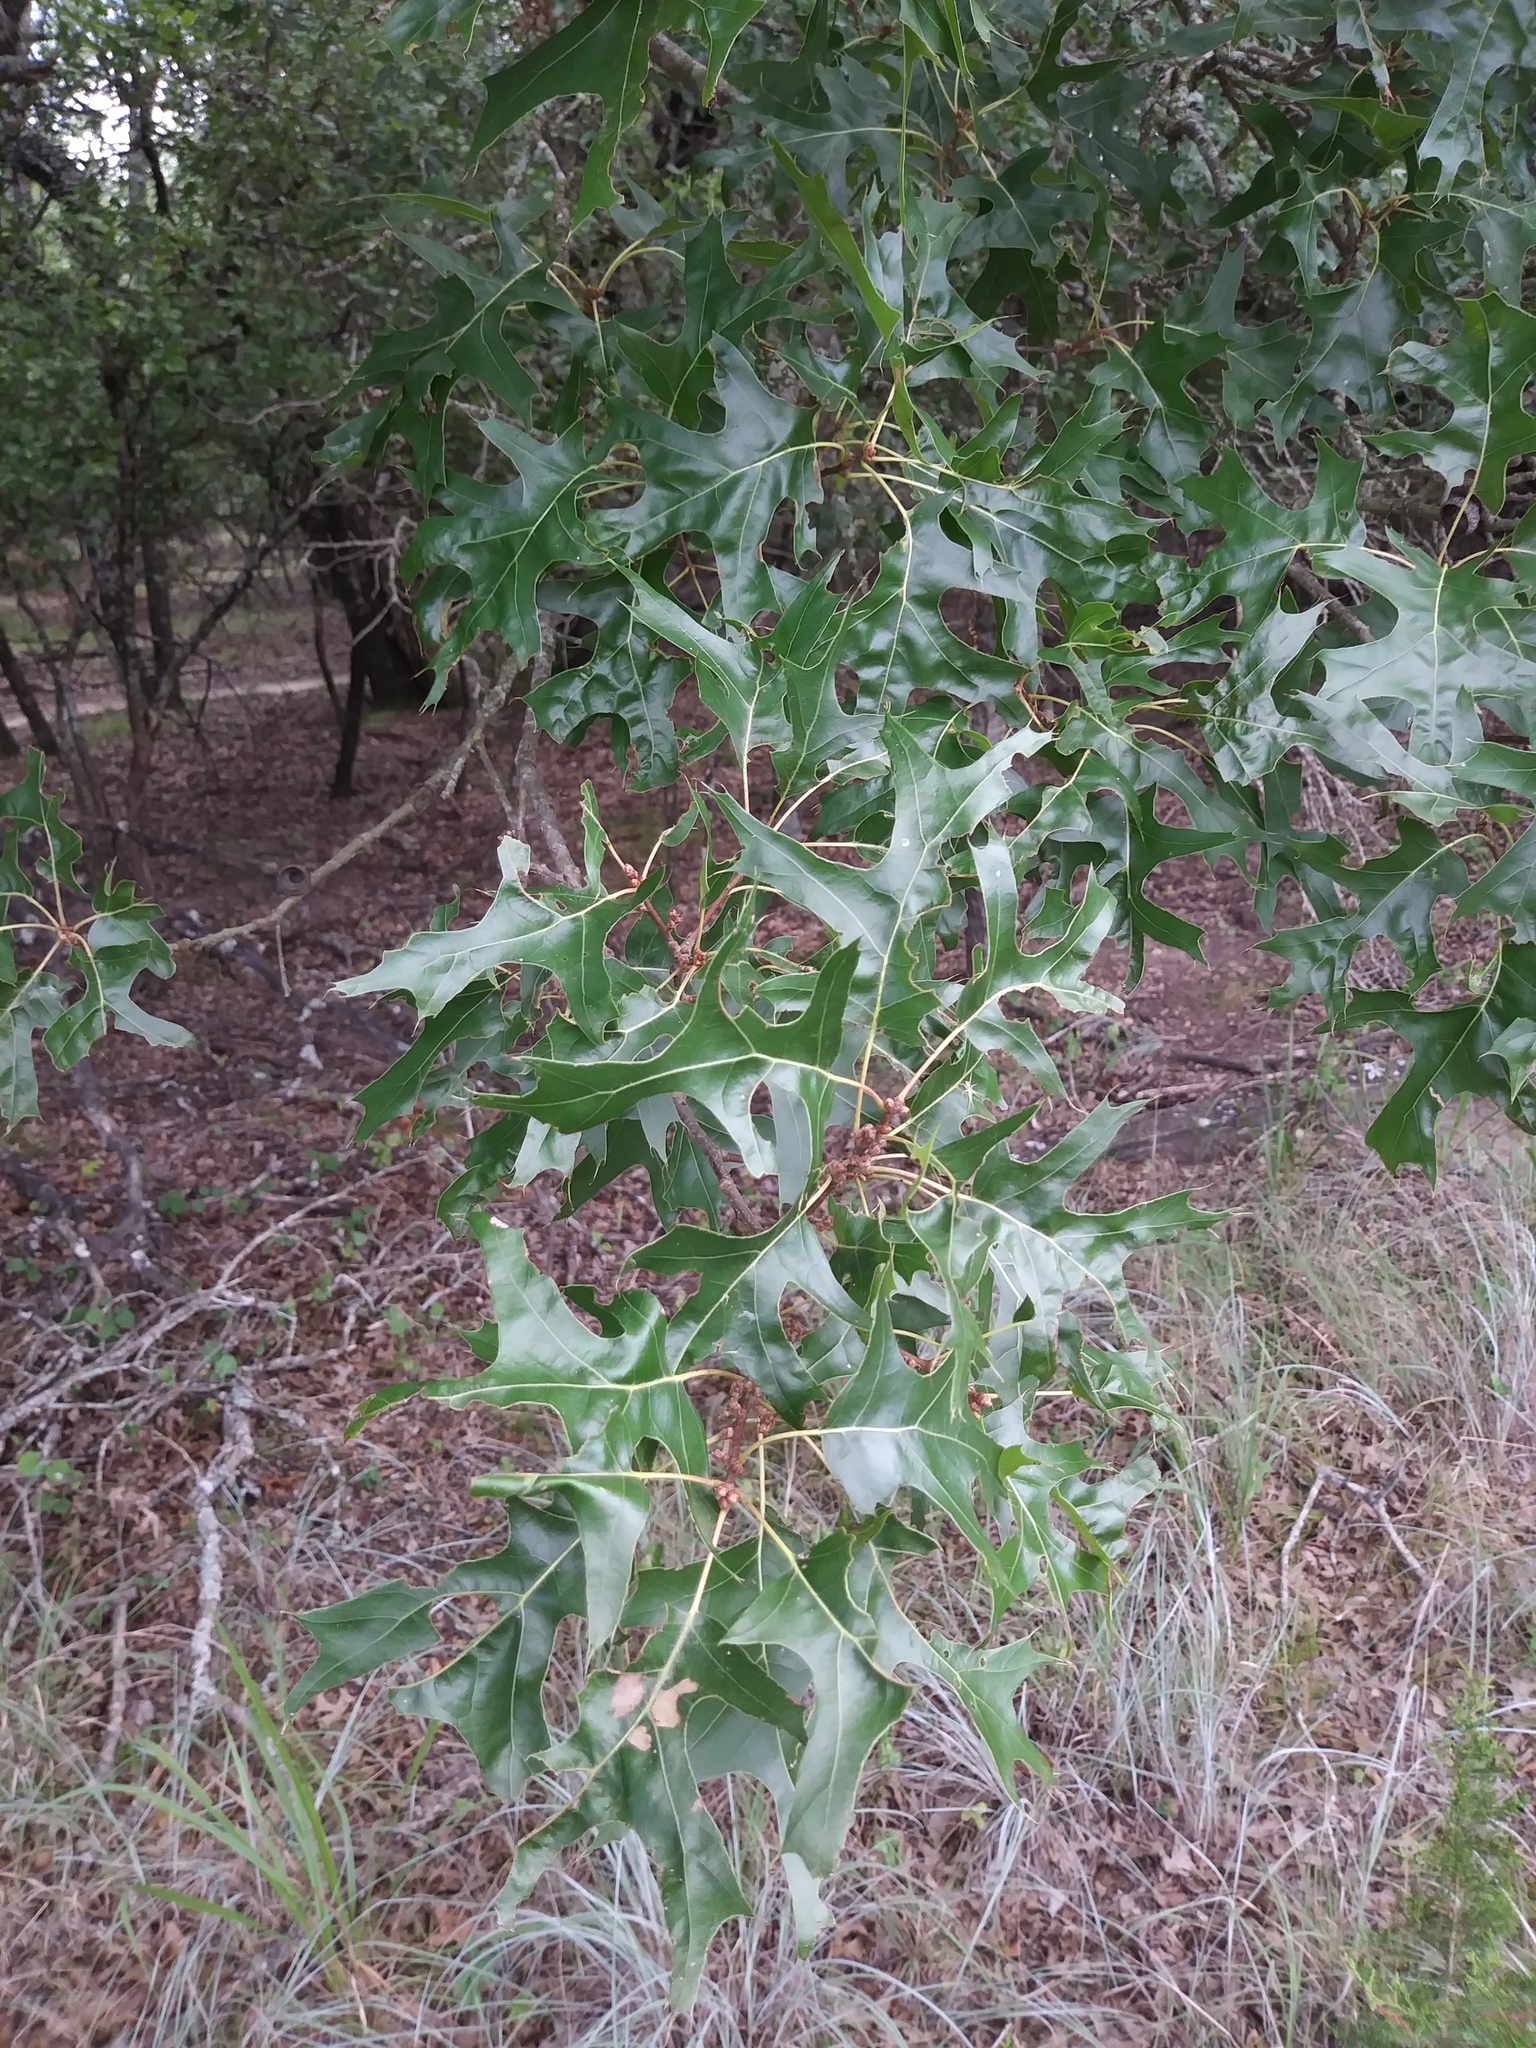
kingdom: Plantae
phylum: Tracheophyta
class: Magnoliopsida
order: Fagales
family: Fagaceae
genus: Quercus
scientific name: Quercus buckleyi
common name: Buckley oak
